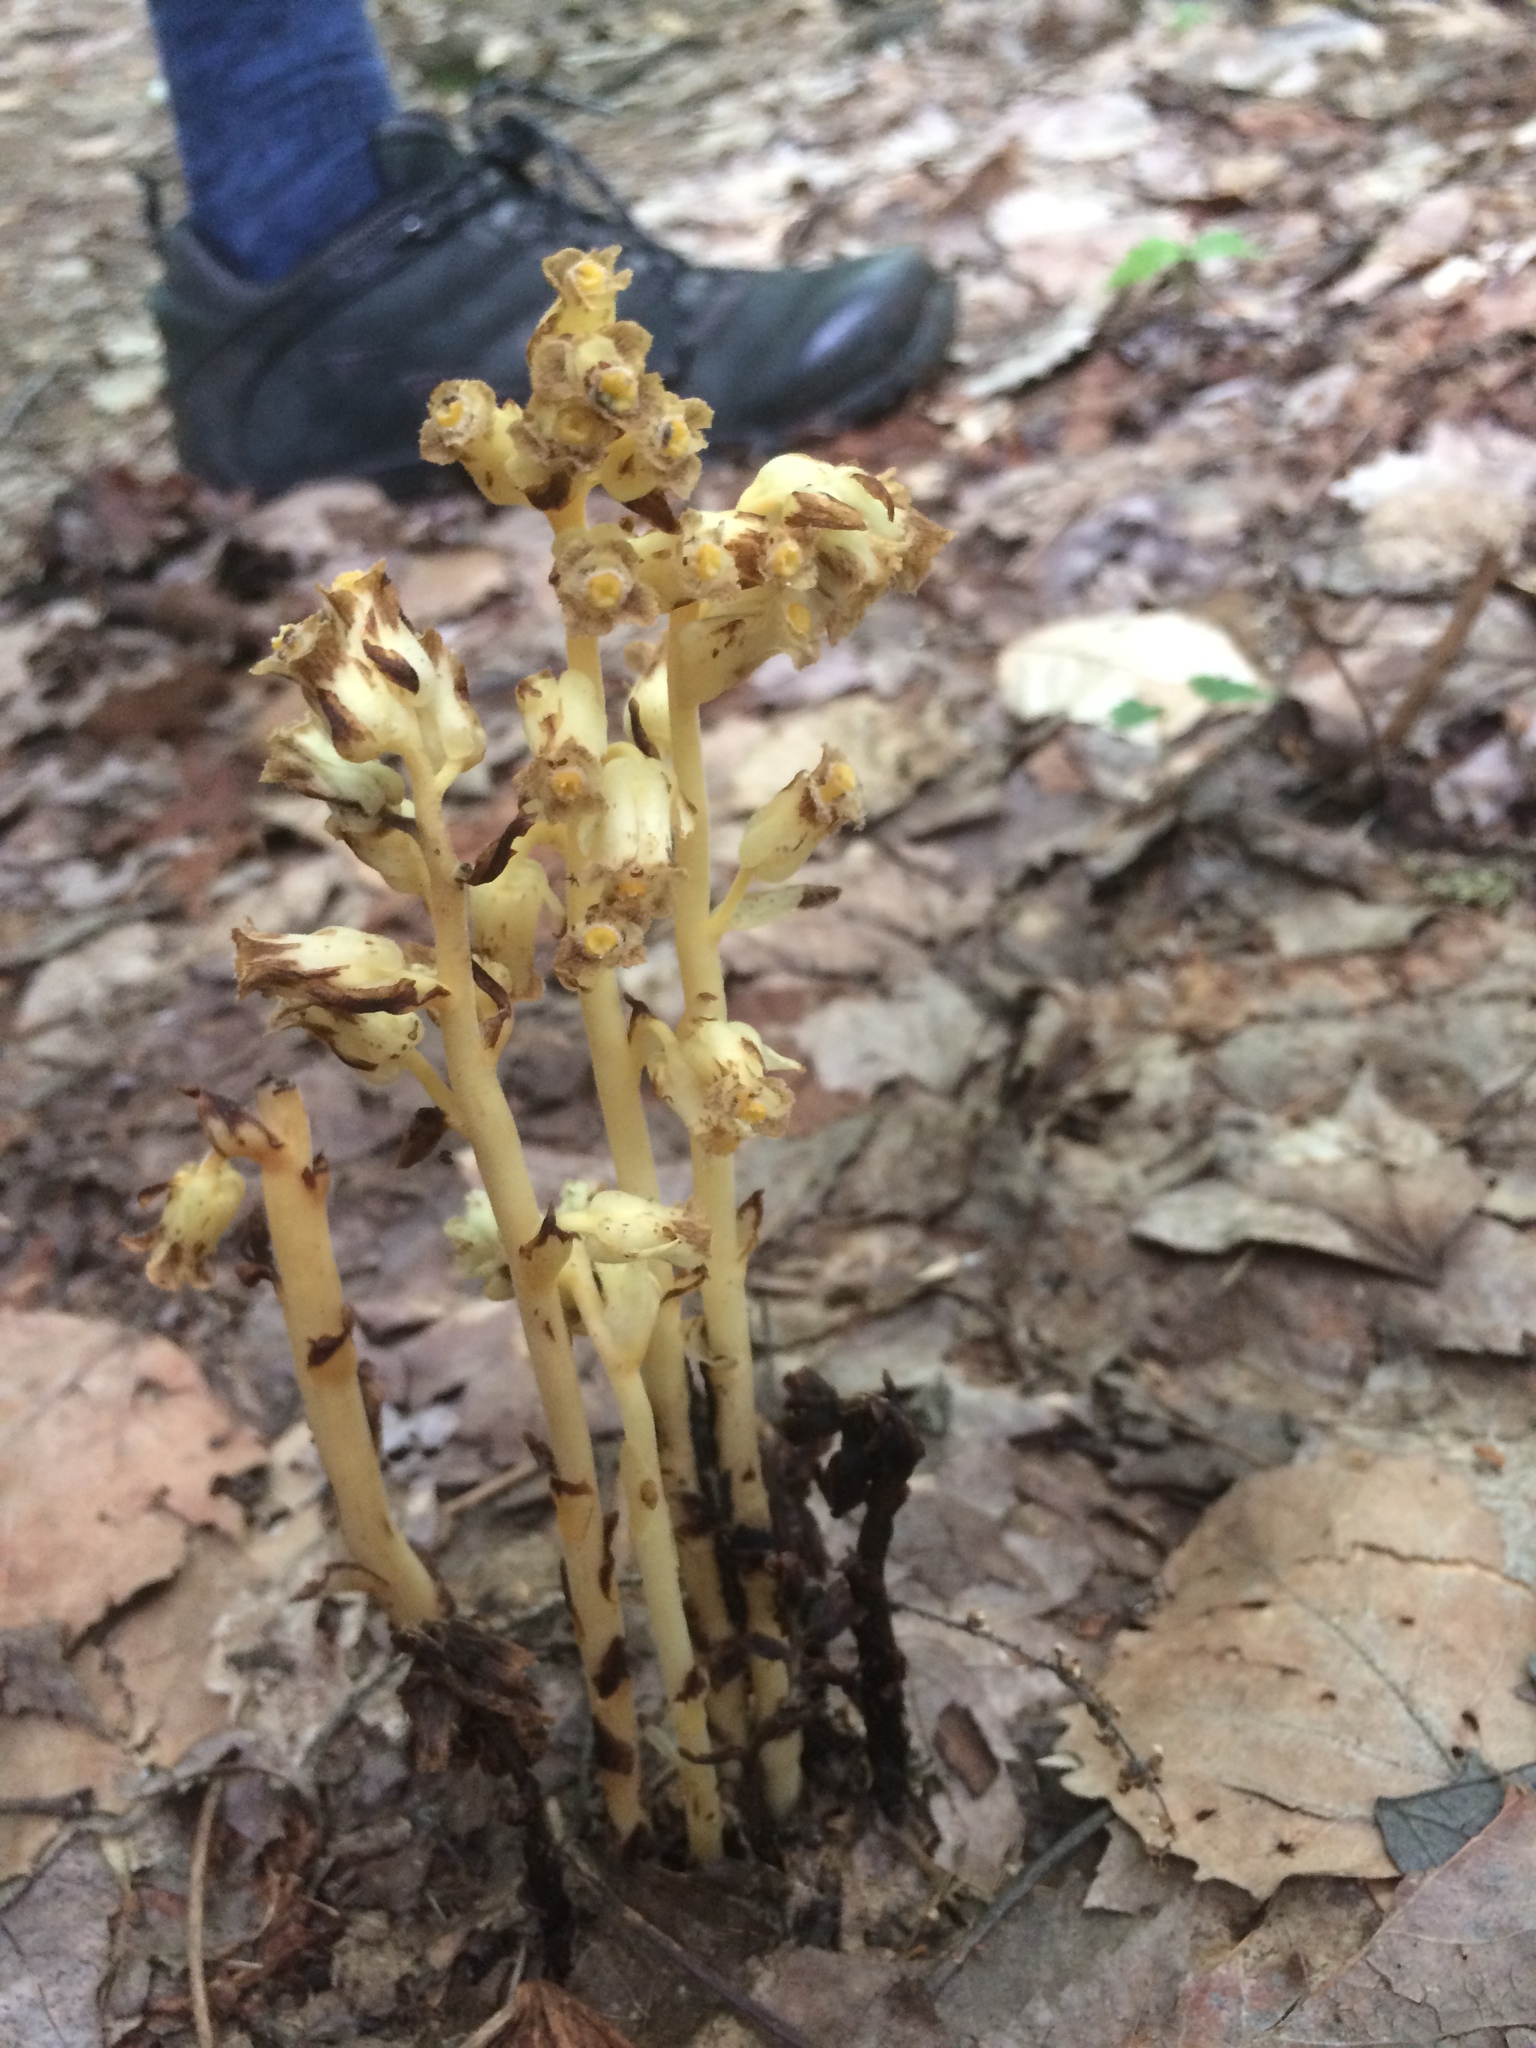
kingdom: Plantae
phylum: Tracheophyta
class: Magnoliopsida
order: Ericales
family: Ericaceae
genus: Hypopitys
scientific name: Hypopitys monotropa
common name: Yellow bird's-nest
